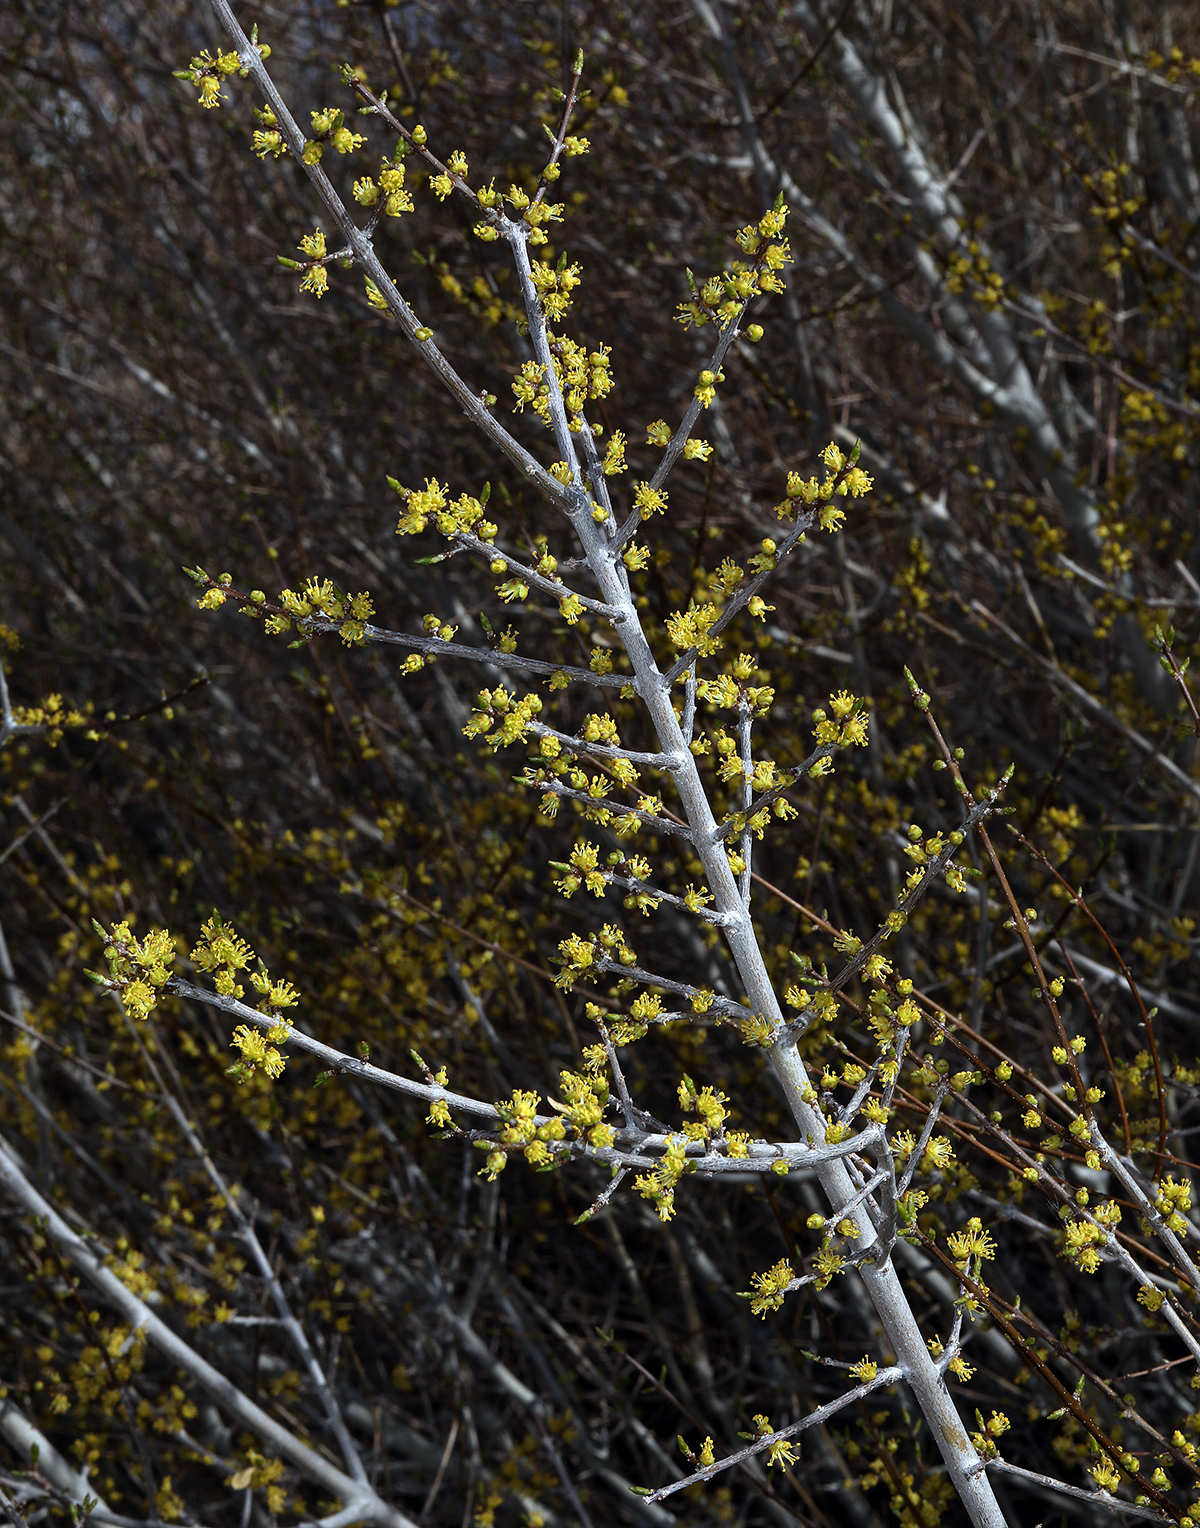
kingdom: Plantae
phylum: Tracheophyta
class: Magnoliopsida
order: Lamiales
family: Oleaceae
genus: Forestiera
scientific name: Forestiera pubescens
